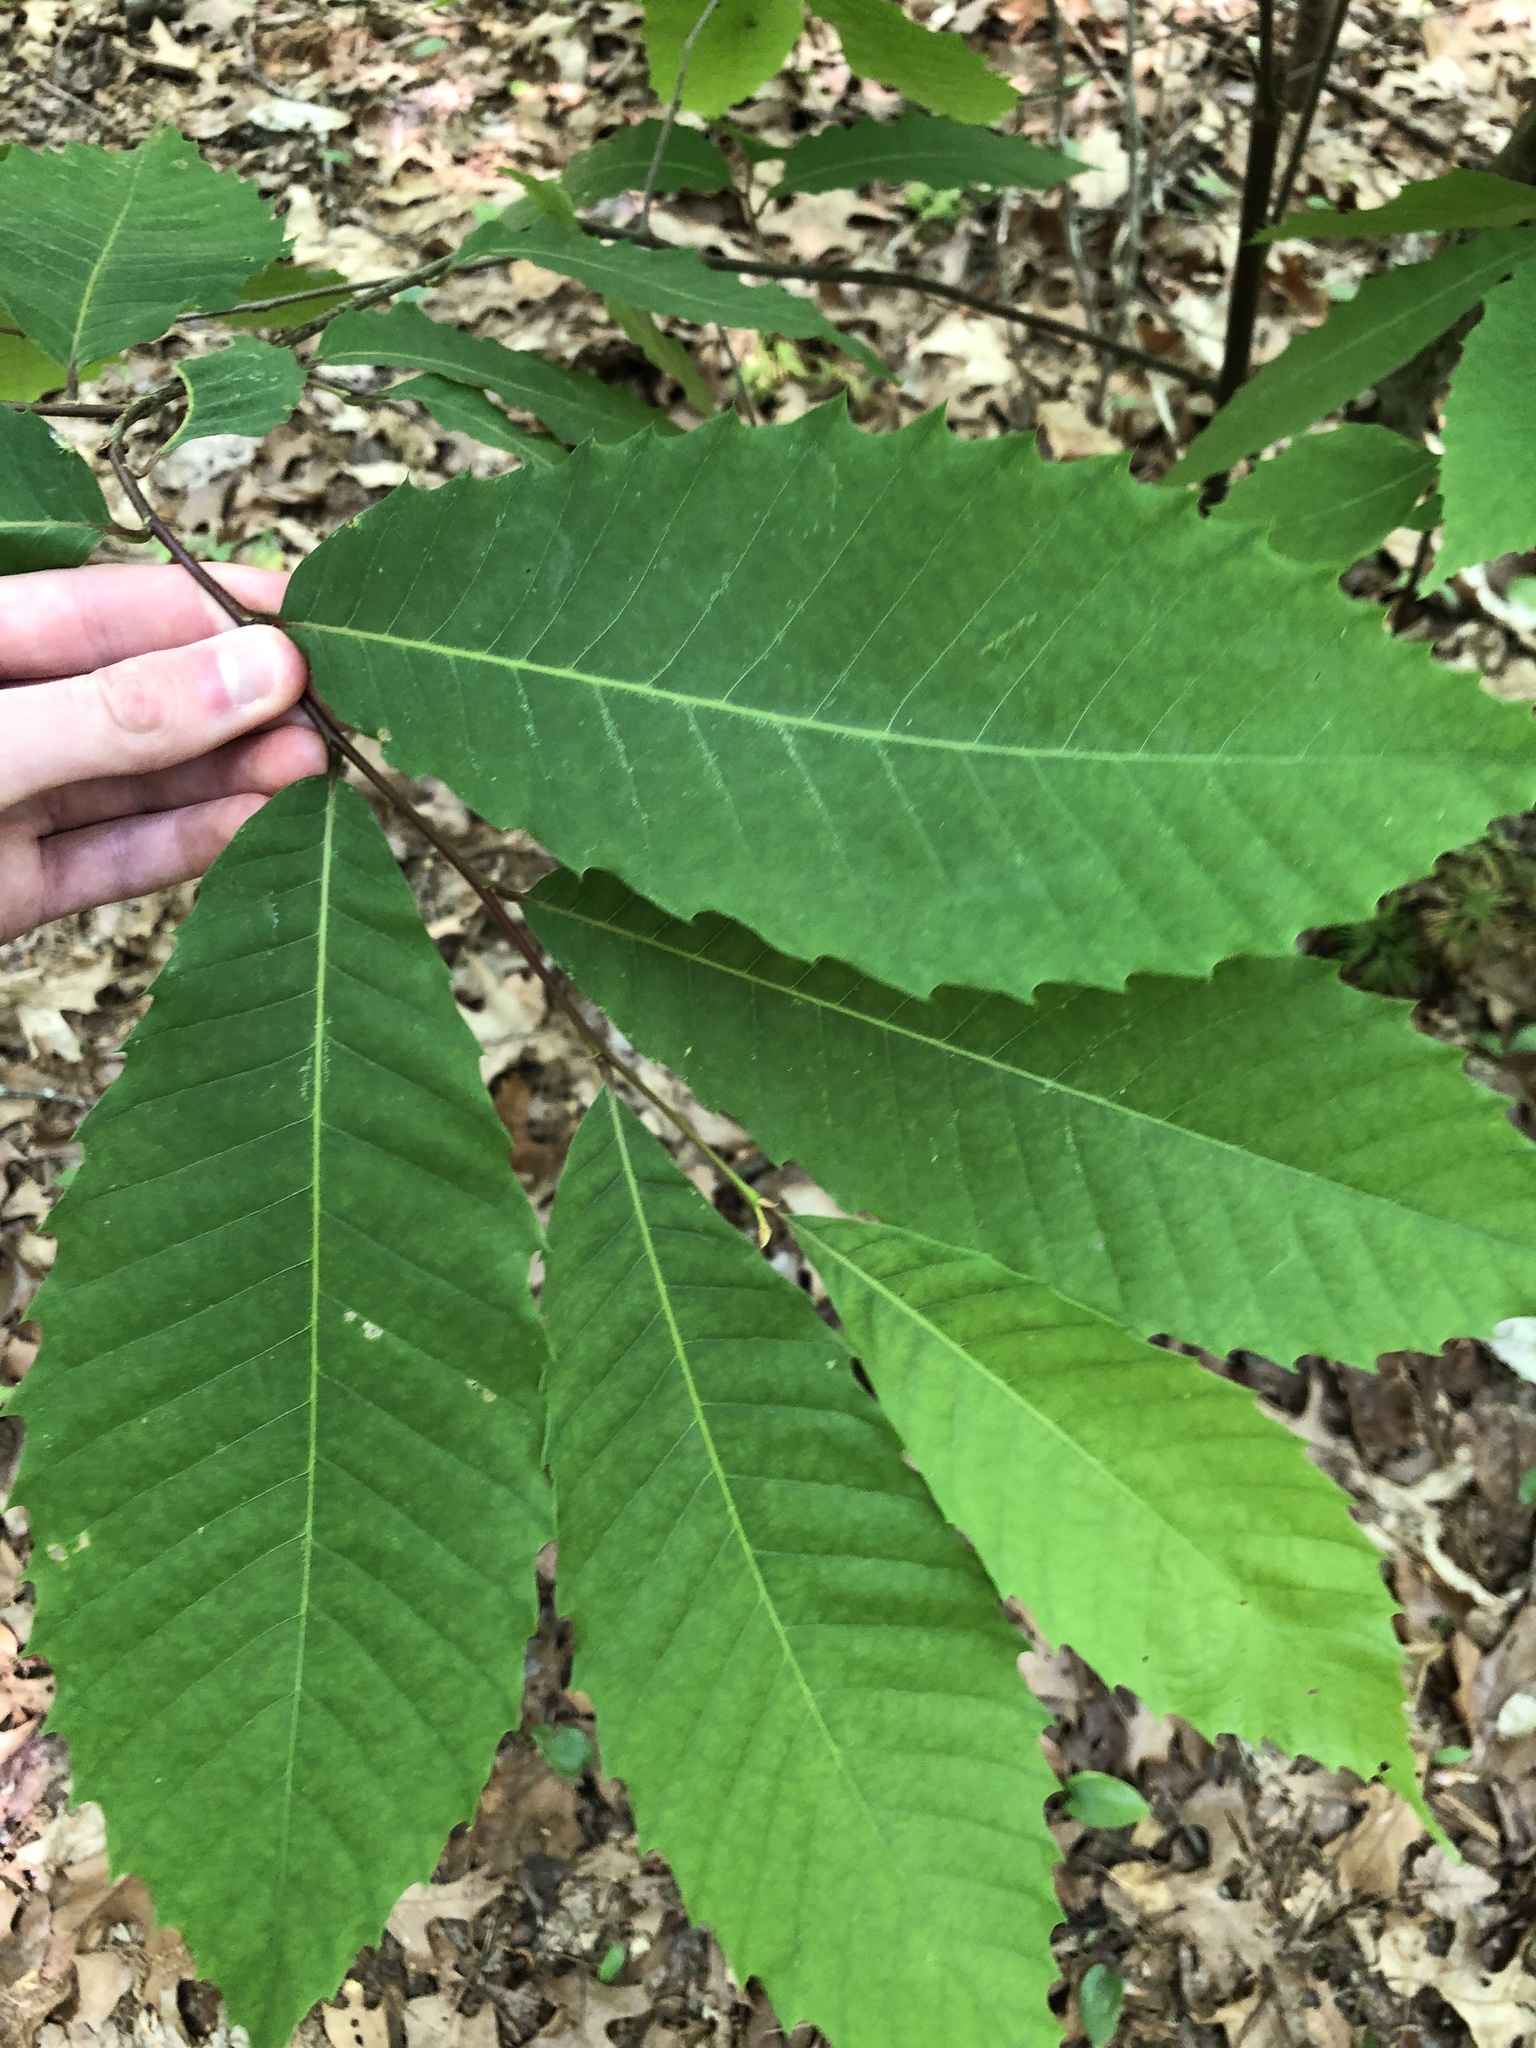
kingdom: Plantae
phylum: Tracheophyta
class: Magnoliopsida
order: Fagales
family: Fagaceae
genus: Castanea
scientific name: Castanea dentata
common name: American chestnut
